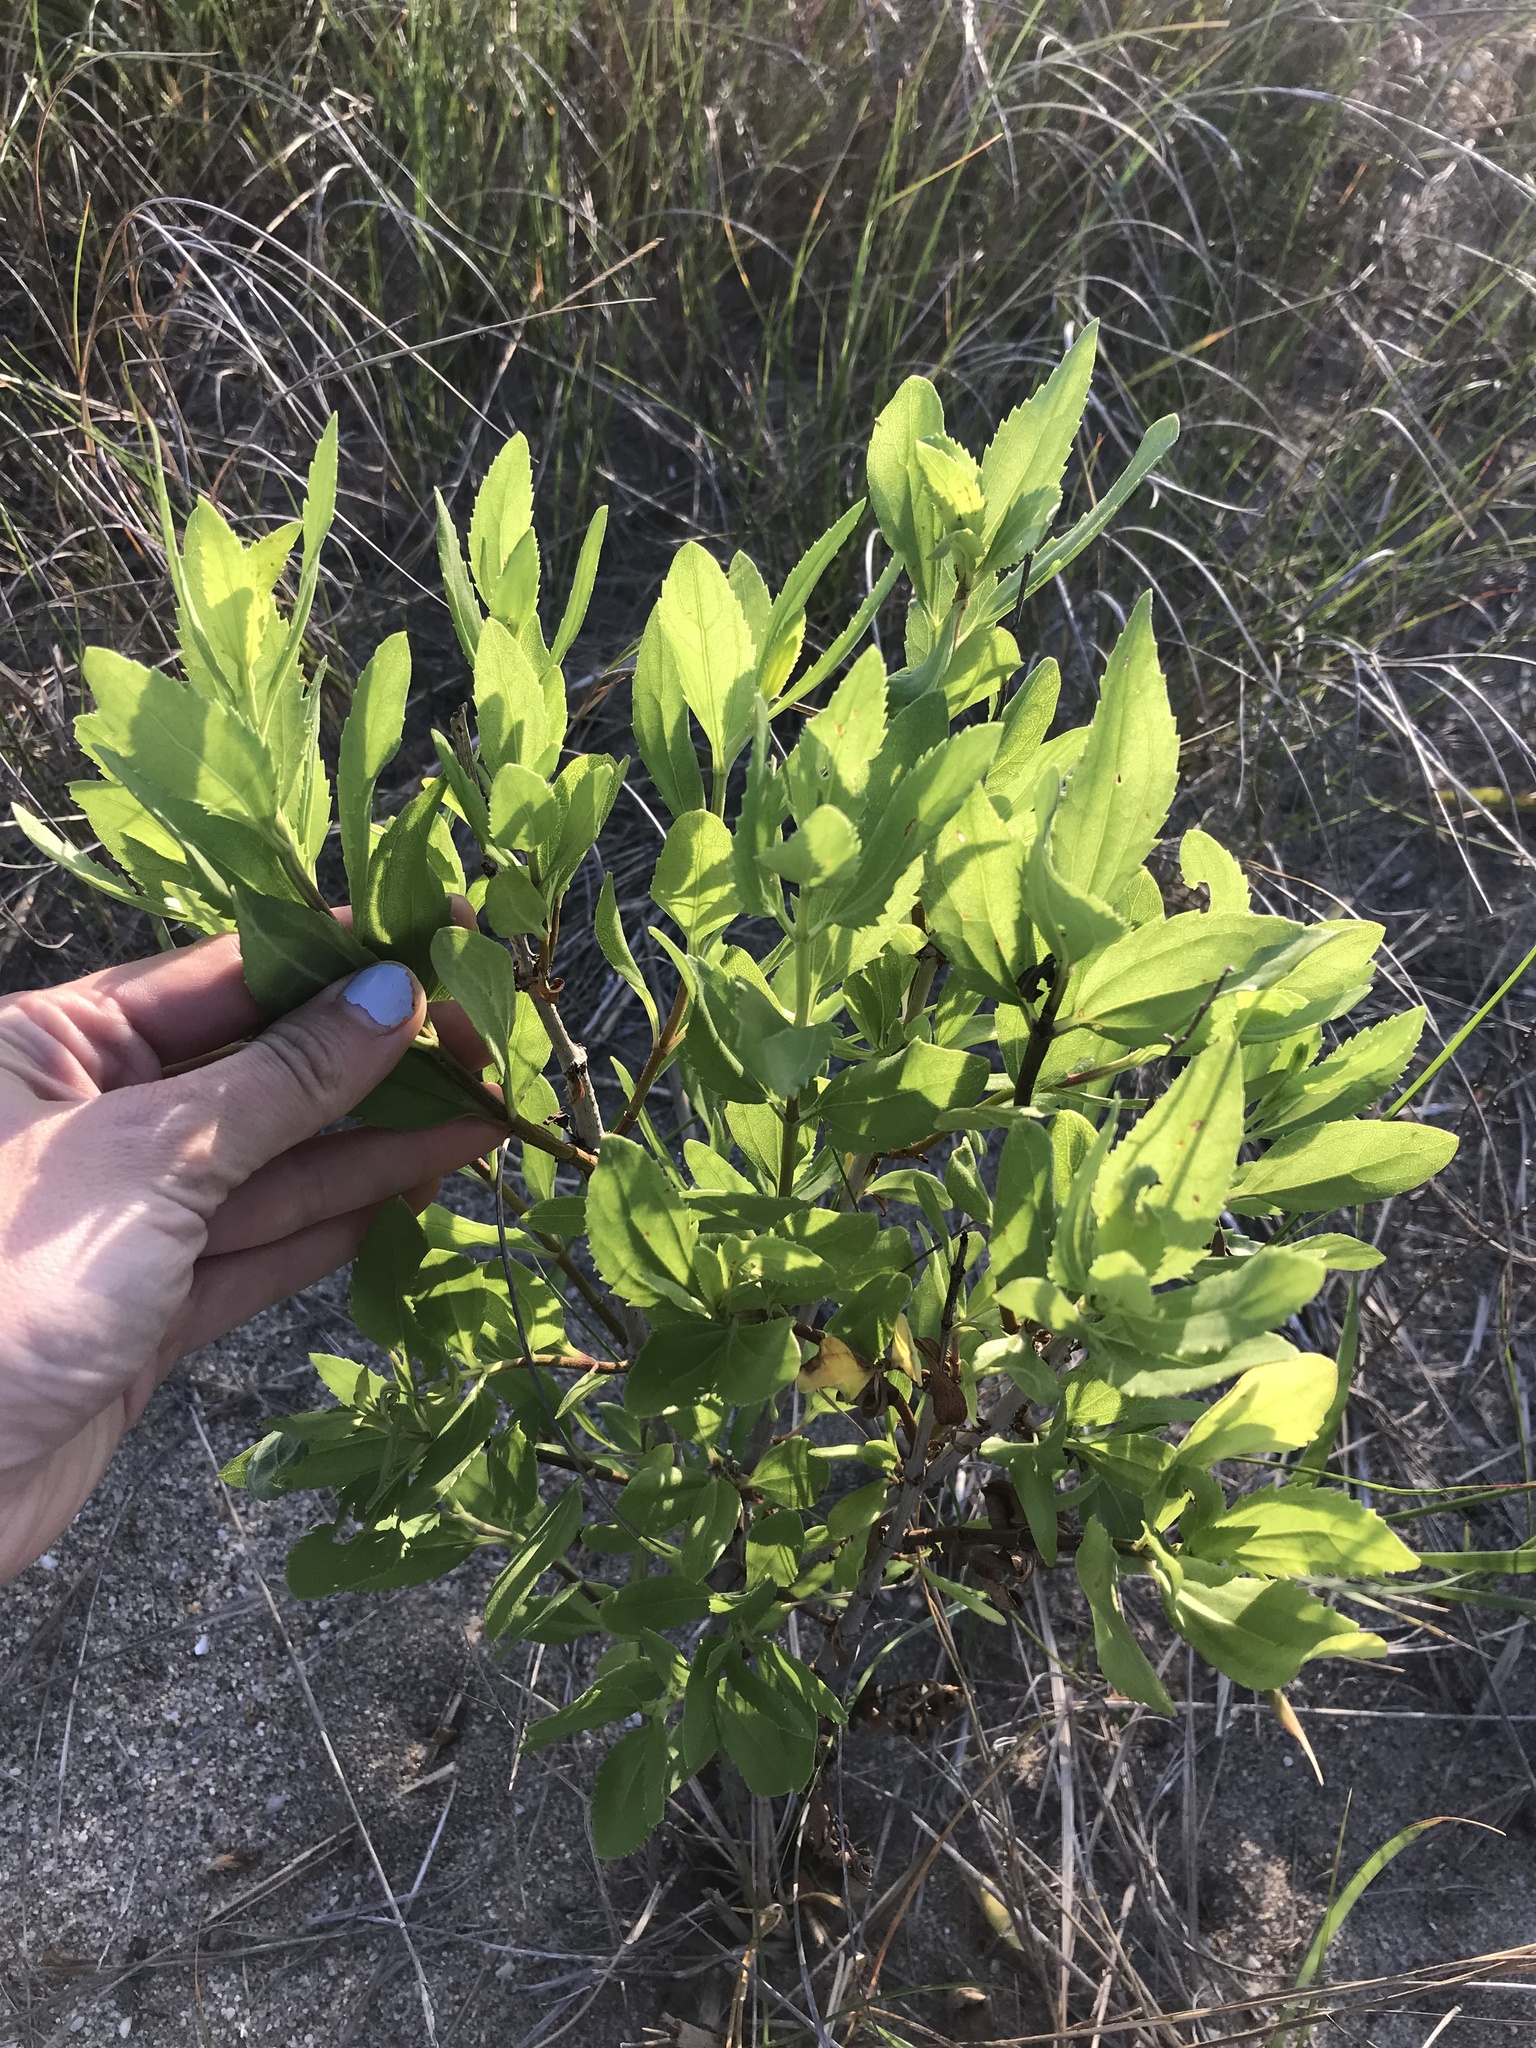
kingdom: Plantae
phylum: Tracheophyta
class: Magnoliopsida
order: Asterales
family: Asteraceae
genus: Iva
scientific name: Iva frutescens
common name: Big-leaved marsh-elder
